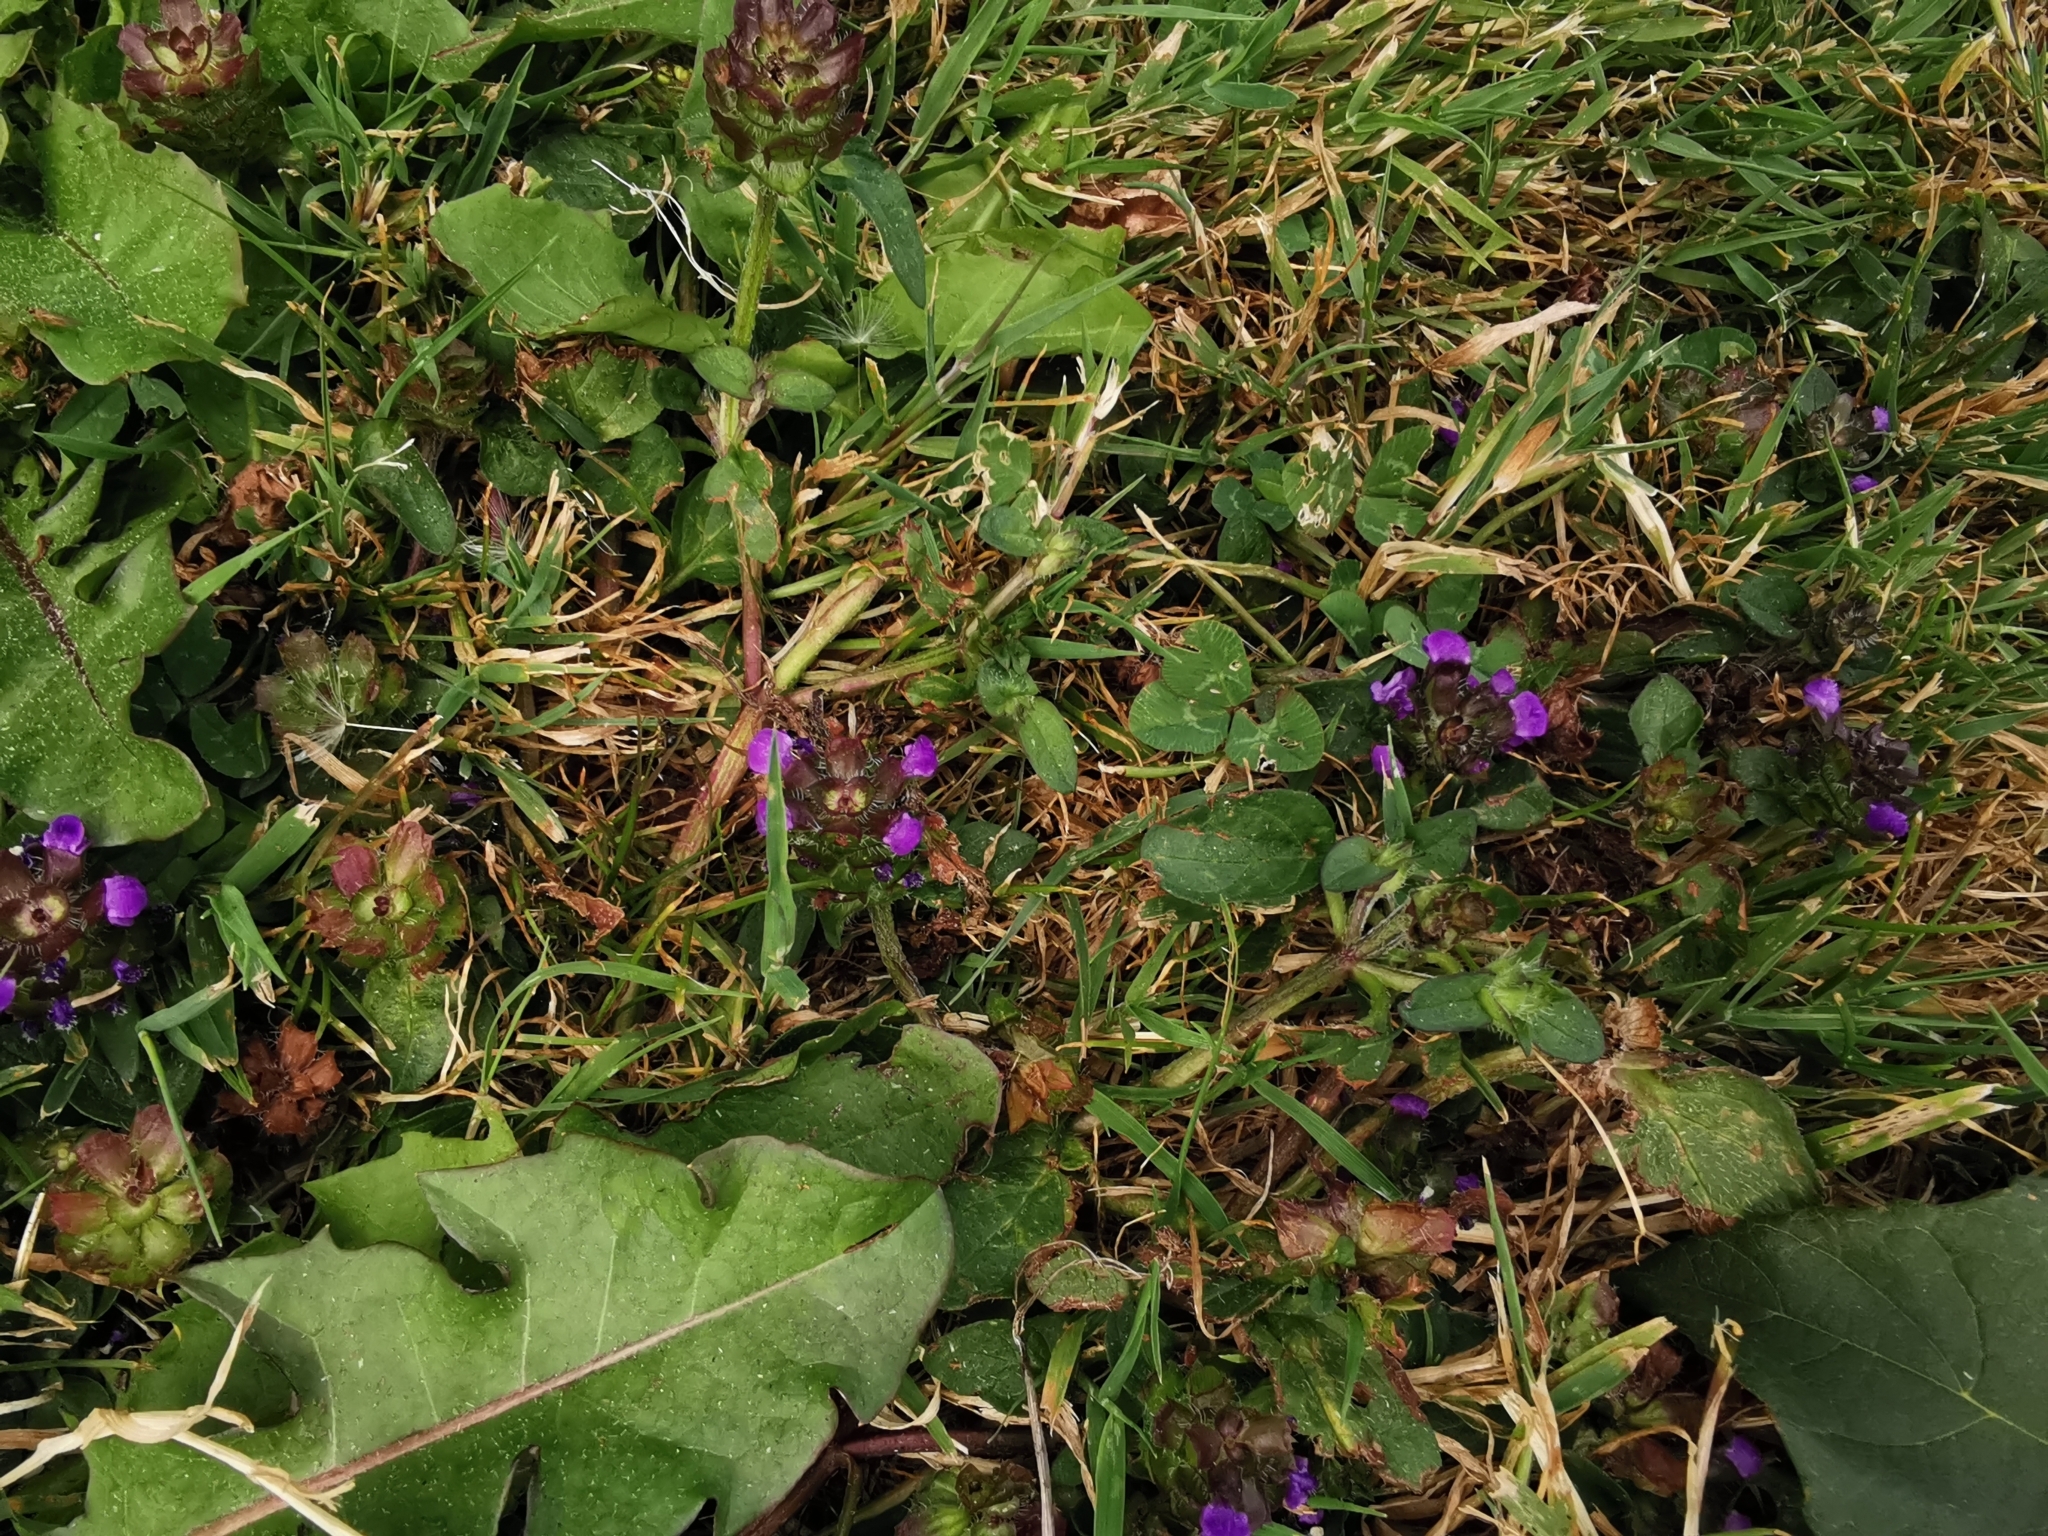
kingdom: Plantae
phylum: Tracheophyta
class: Magnoliopsida
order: Lamiales
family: Lamiaceae
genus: Prunella
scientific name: Prunella vulgaris
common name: Heal-all
